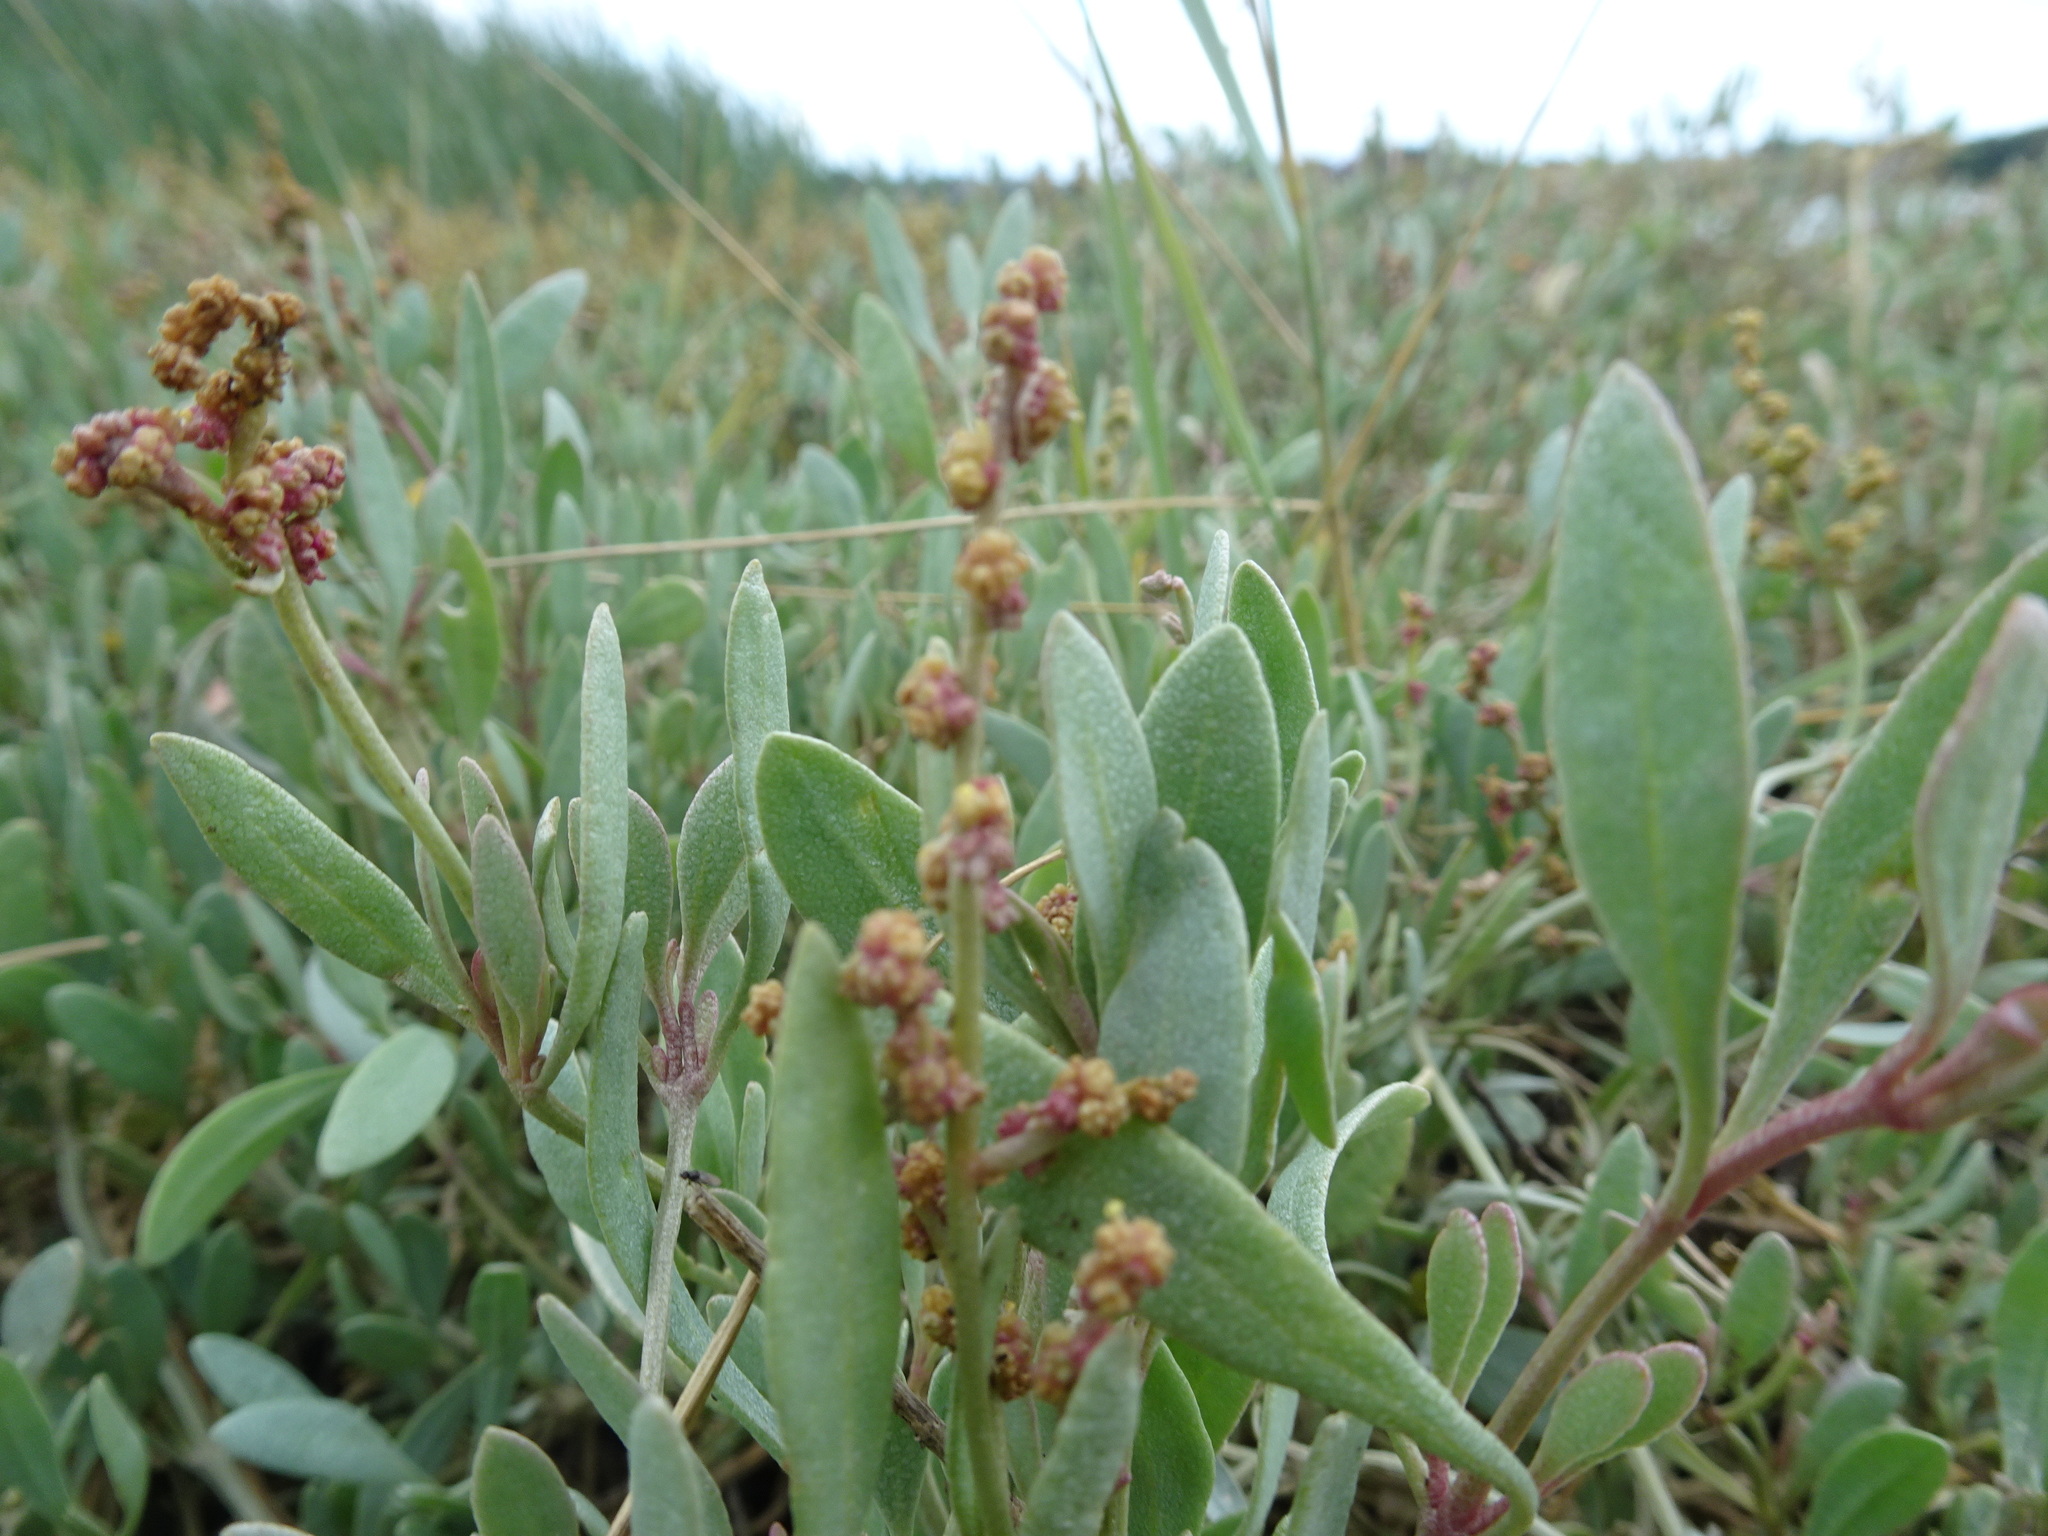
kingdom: Plantae
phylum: Tracheophyta
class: Magnoliopsida
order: Caryophyllales
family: Amaranthaceae
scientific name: Amaranthaceae
